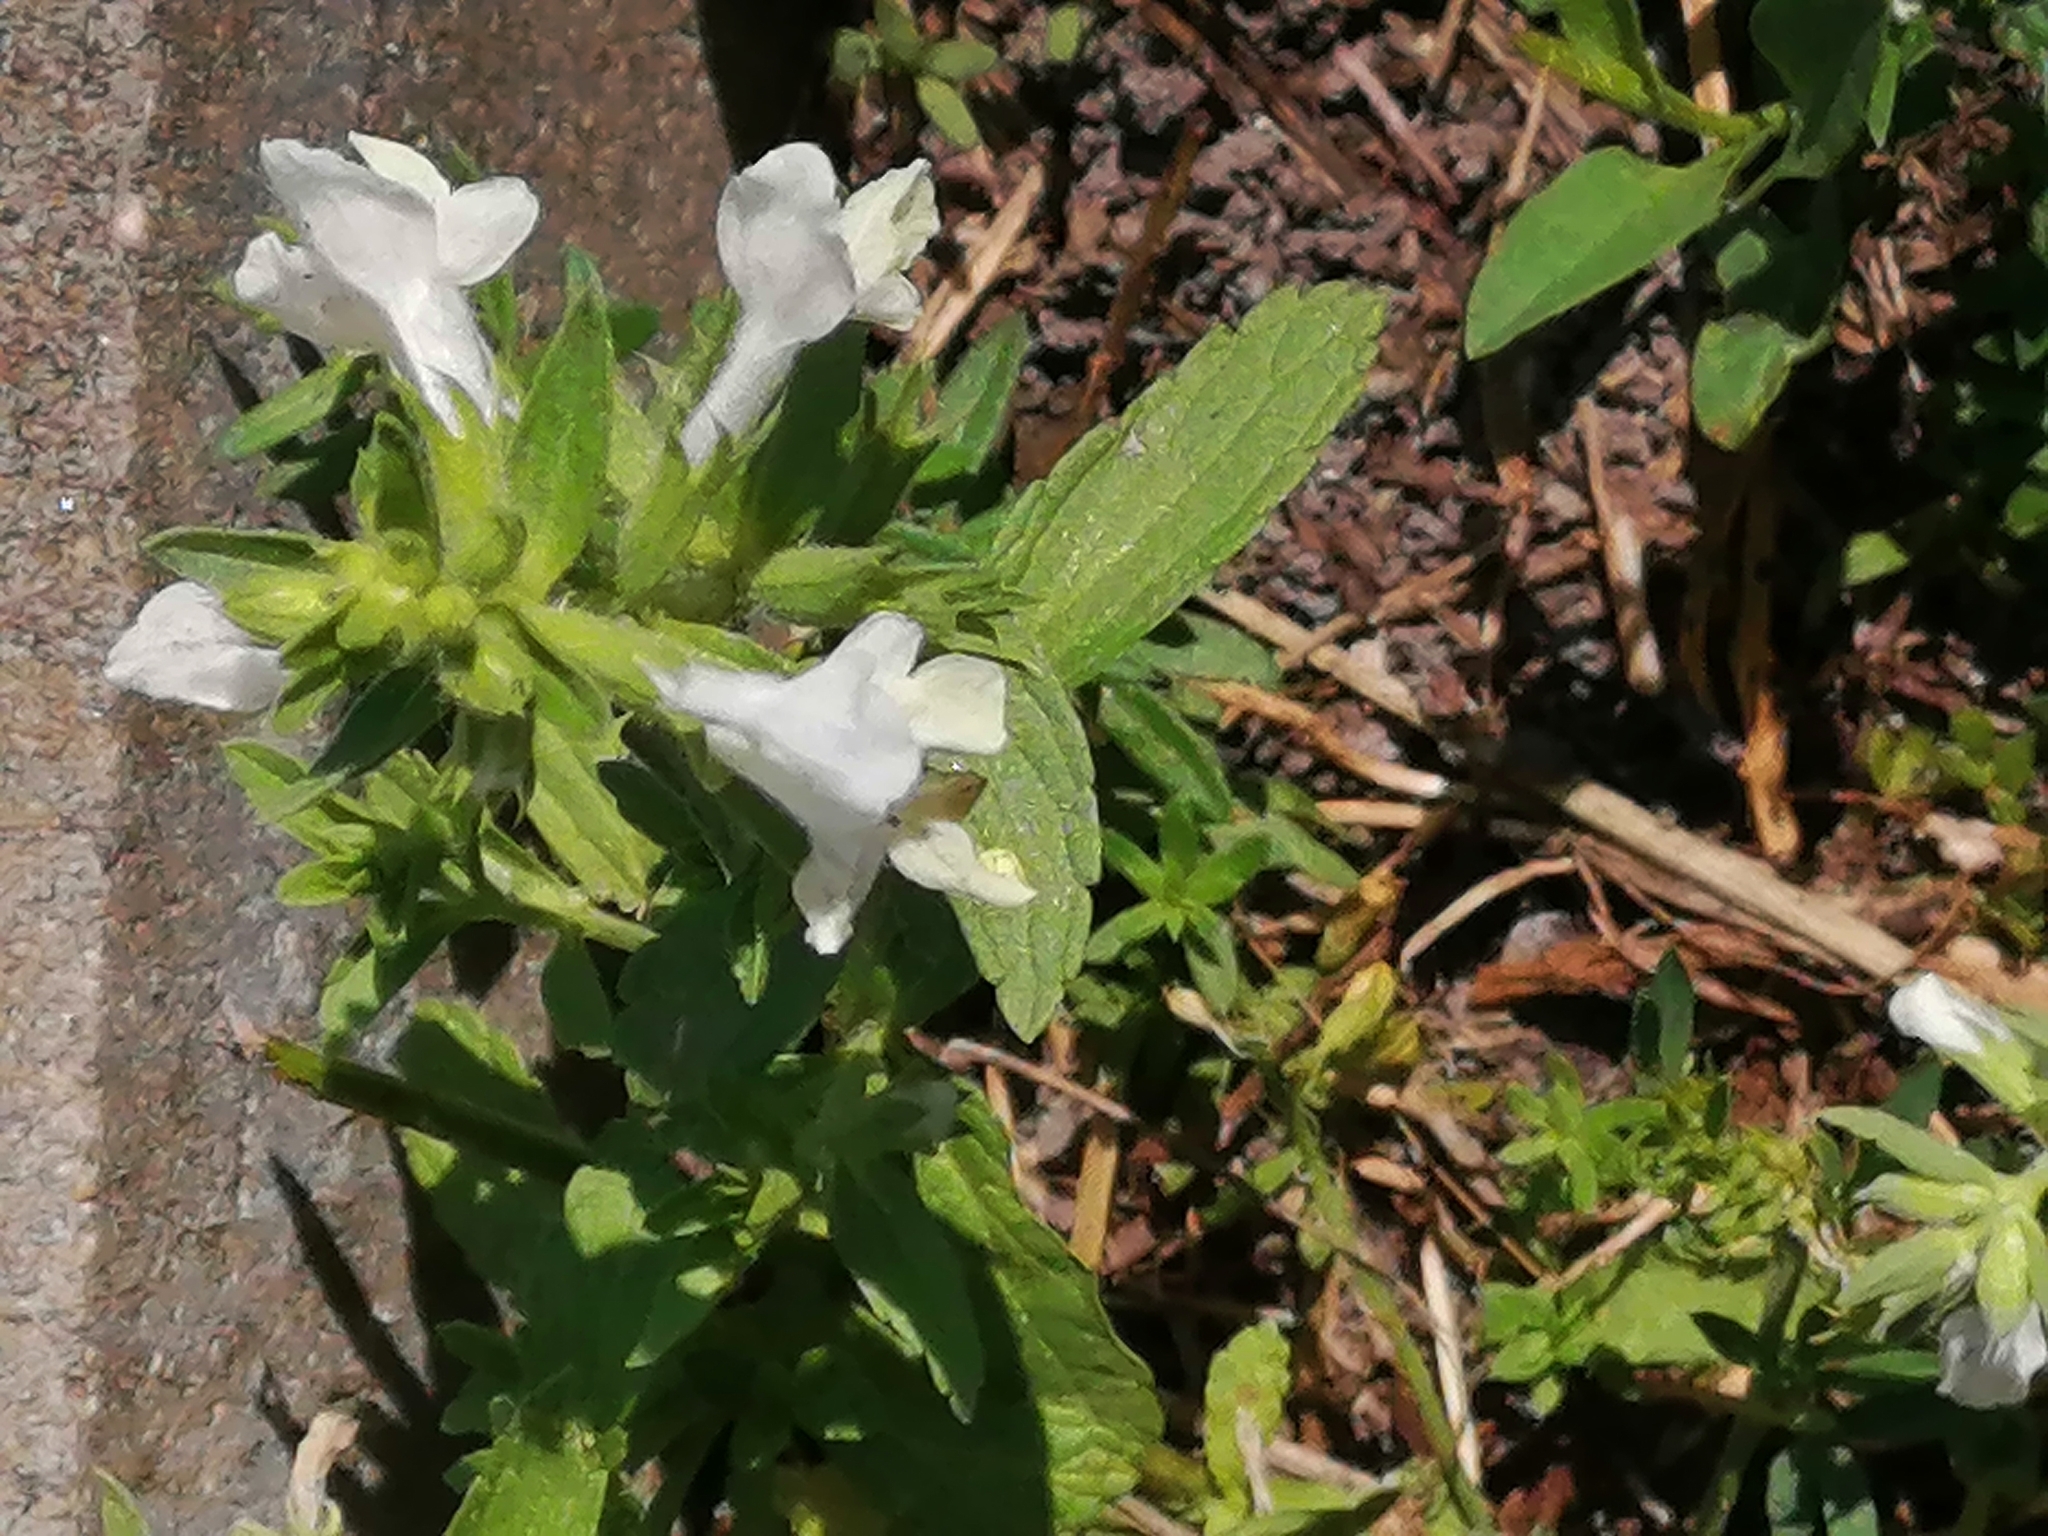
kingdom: Plantae
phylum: Tracheophyta
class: Magnoliopsida
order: Lamiales
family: Lamiaceae
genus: Stachys
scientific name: Stachys annua
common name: Annual yellow-woundwort
